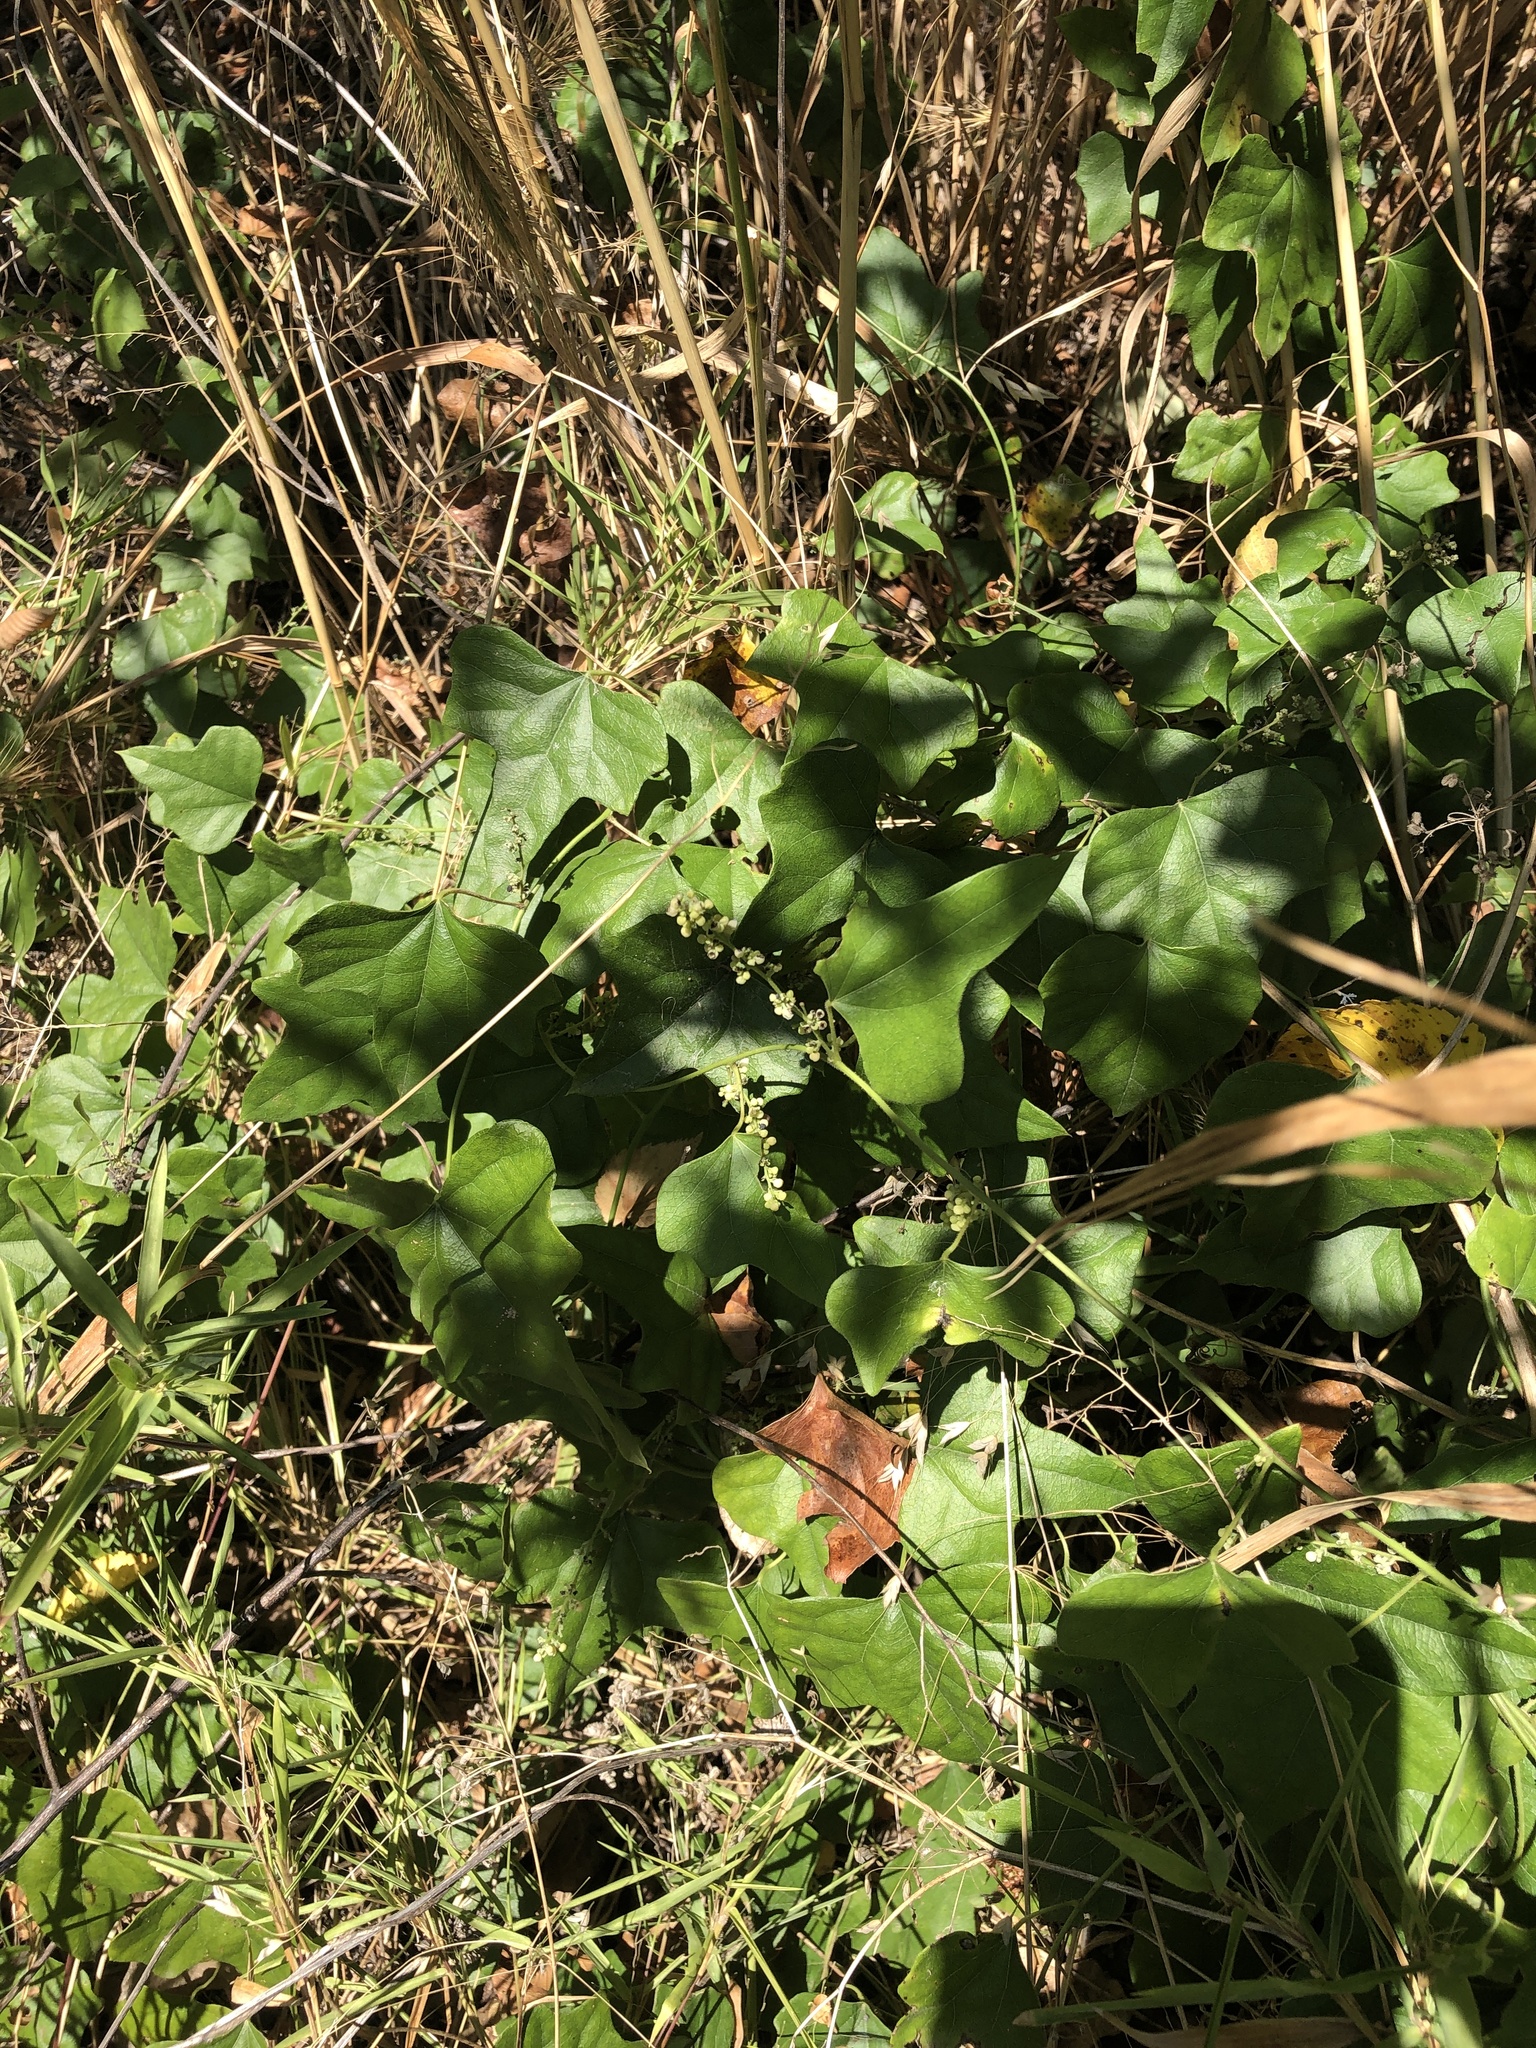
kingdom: Plantae
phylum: Tracheophyta
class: Magnoliopsida
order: Ranunculales
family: Menispermaceae
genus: Cocculus
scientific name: Cocculus carolinus
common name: Carolina moonseed
